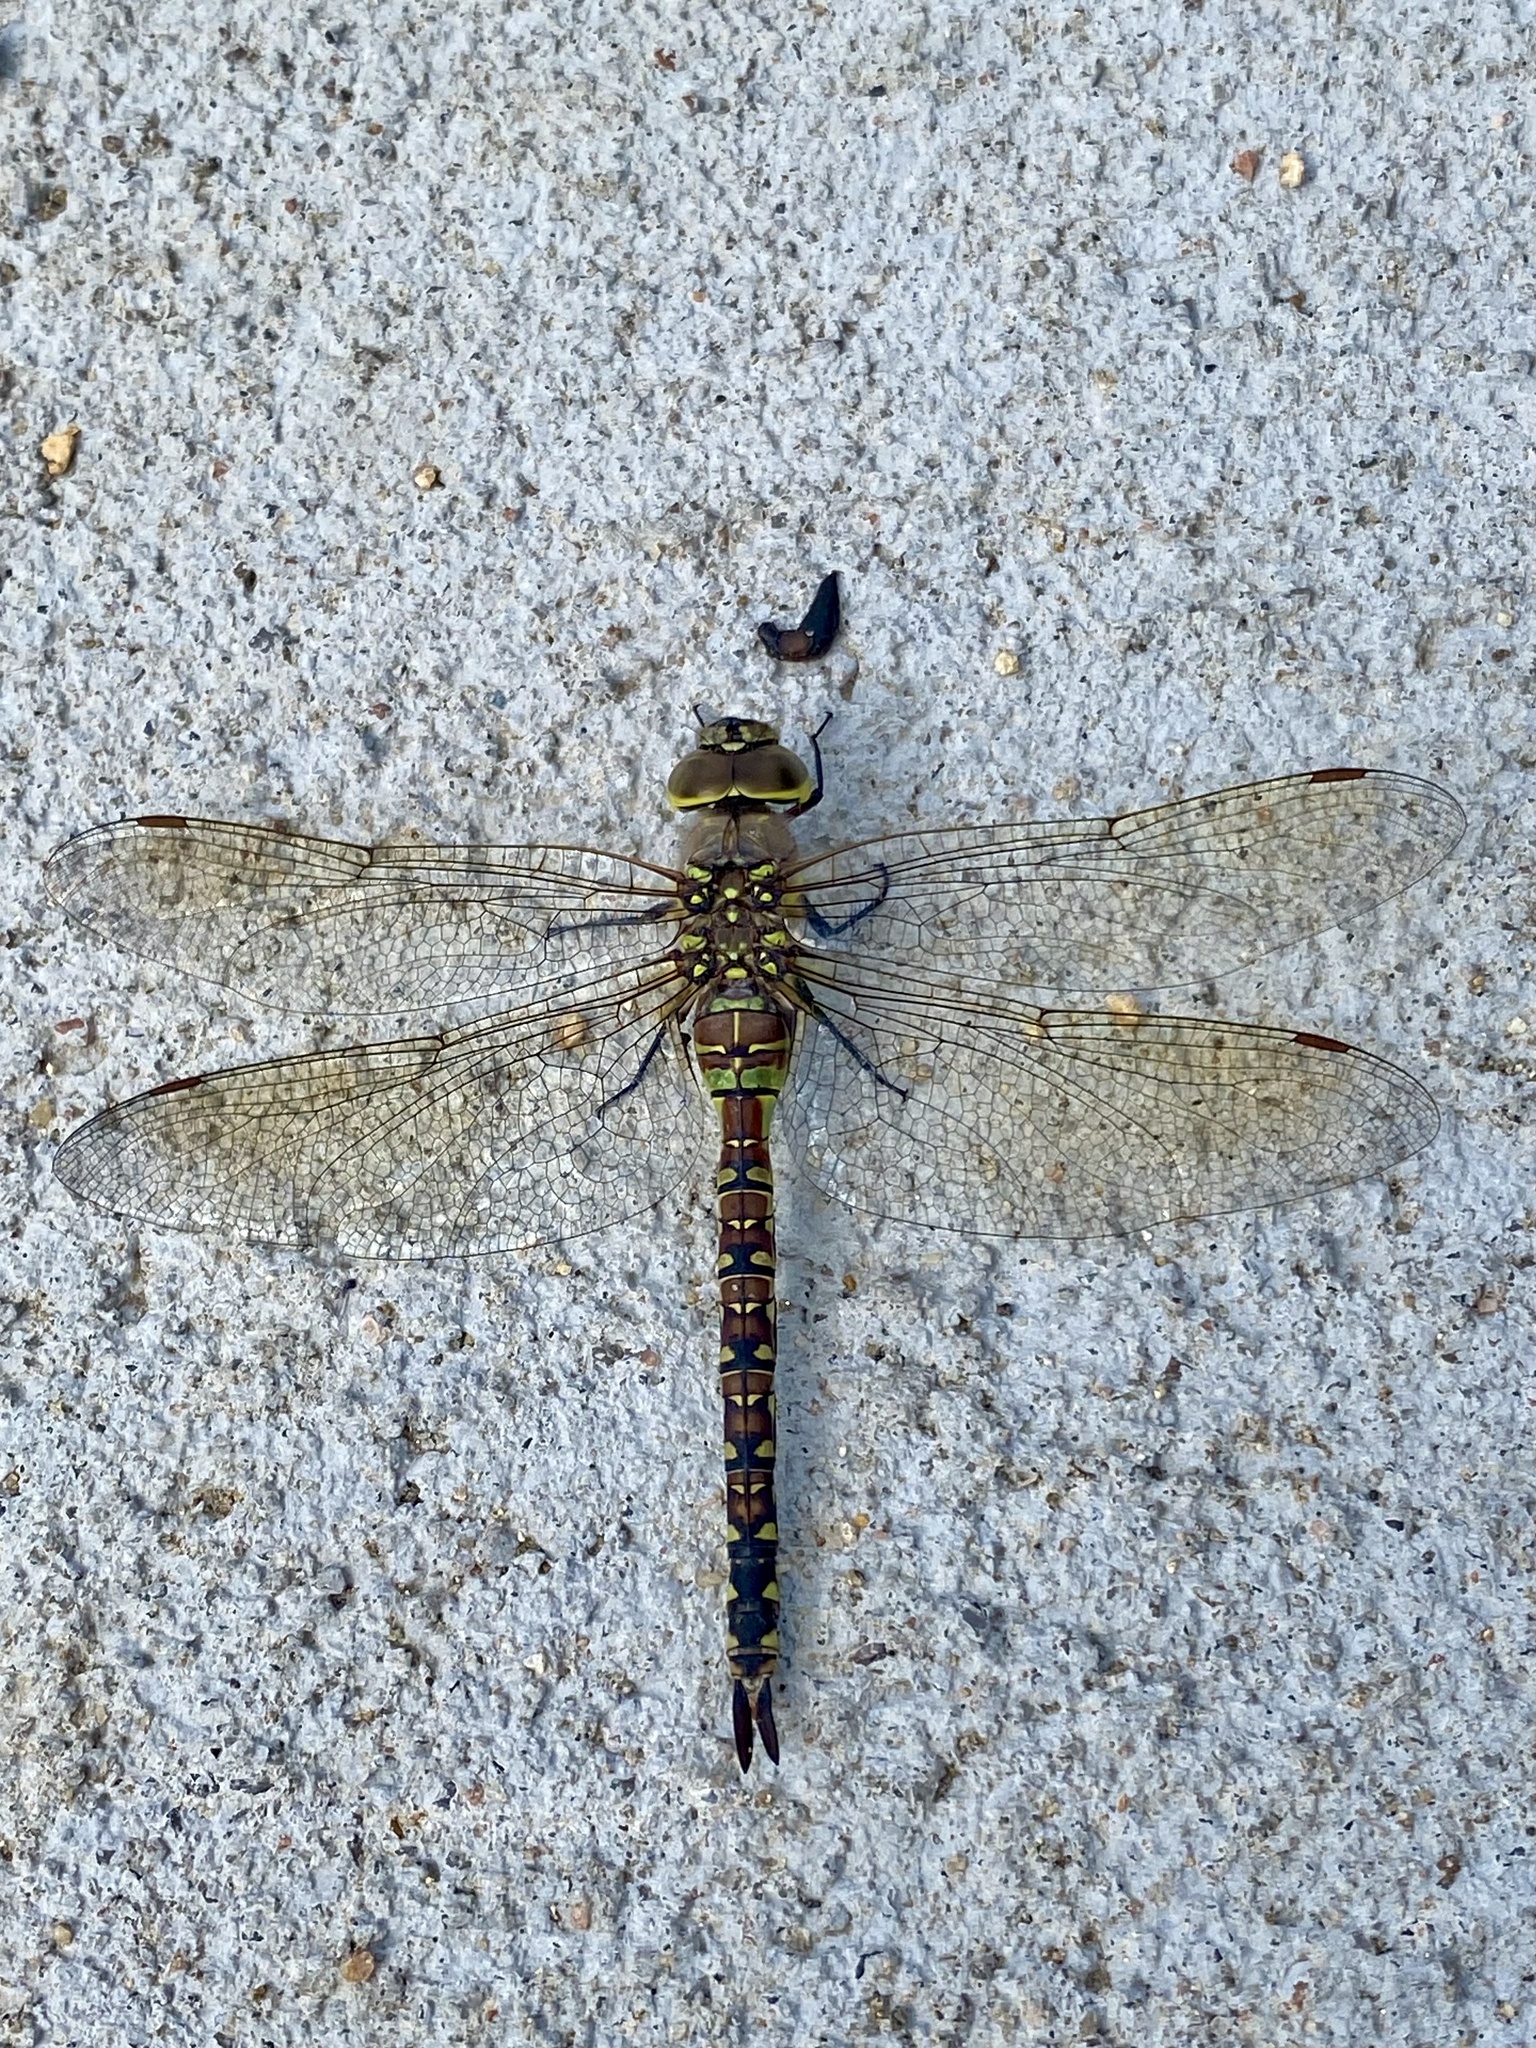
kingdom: Animalia
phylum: Arthropoda
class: Insecta
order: Odonata
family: Aeshnidae
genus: Rhionaeschna
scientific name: Rhionaeschna multicolor
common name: Blue-eyed darner
